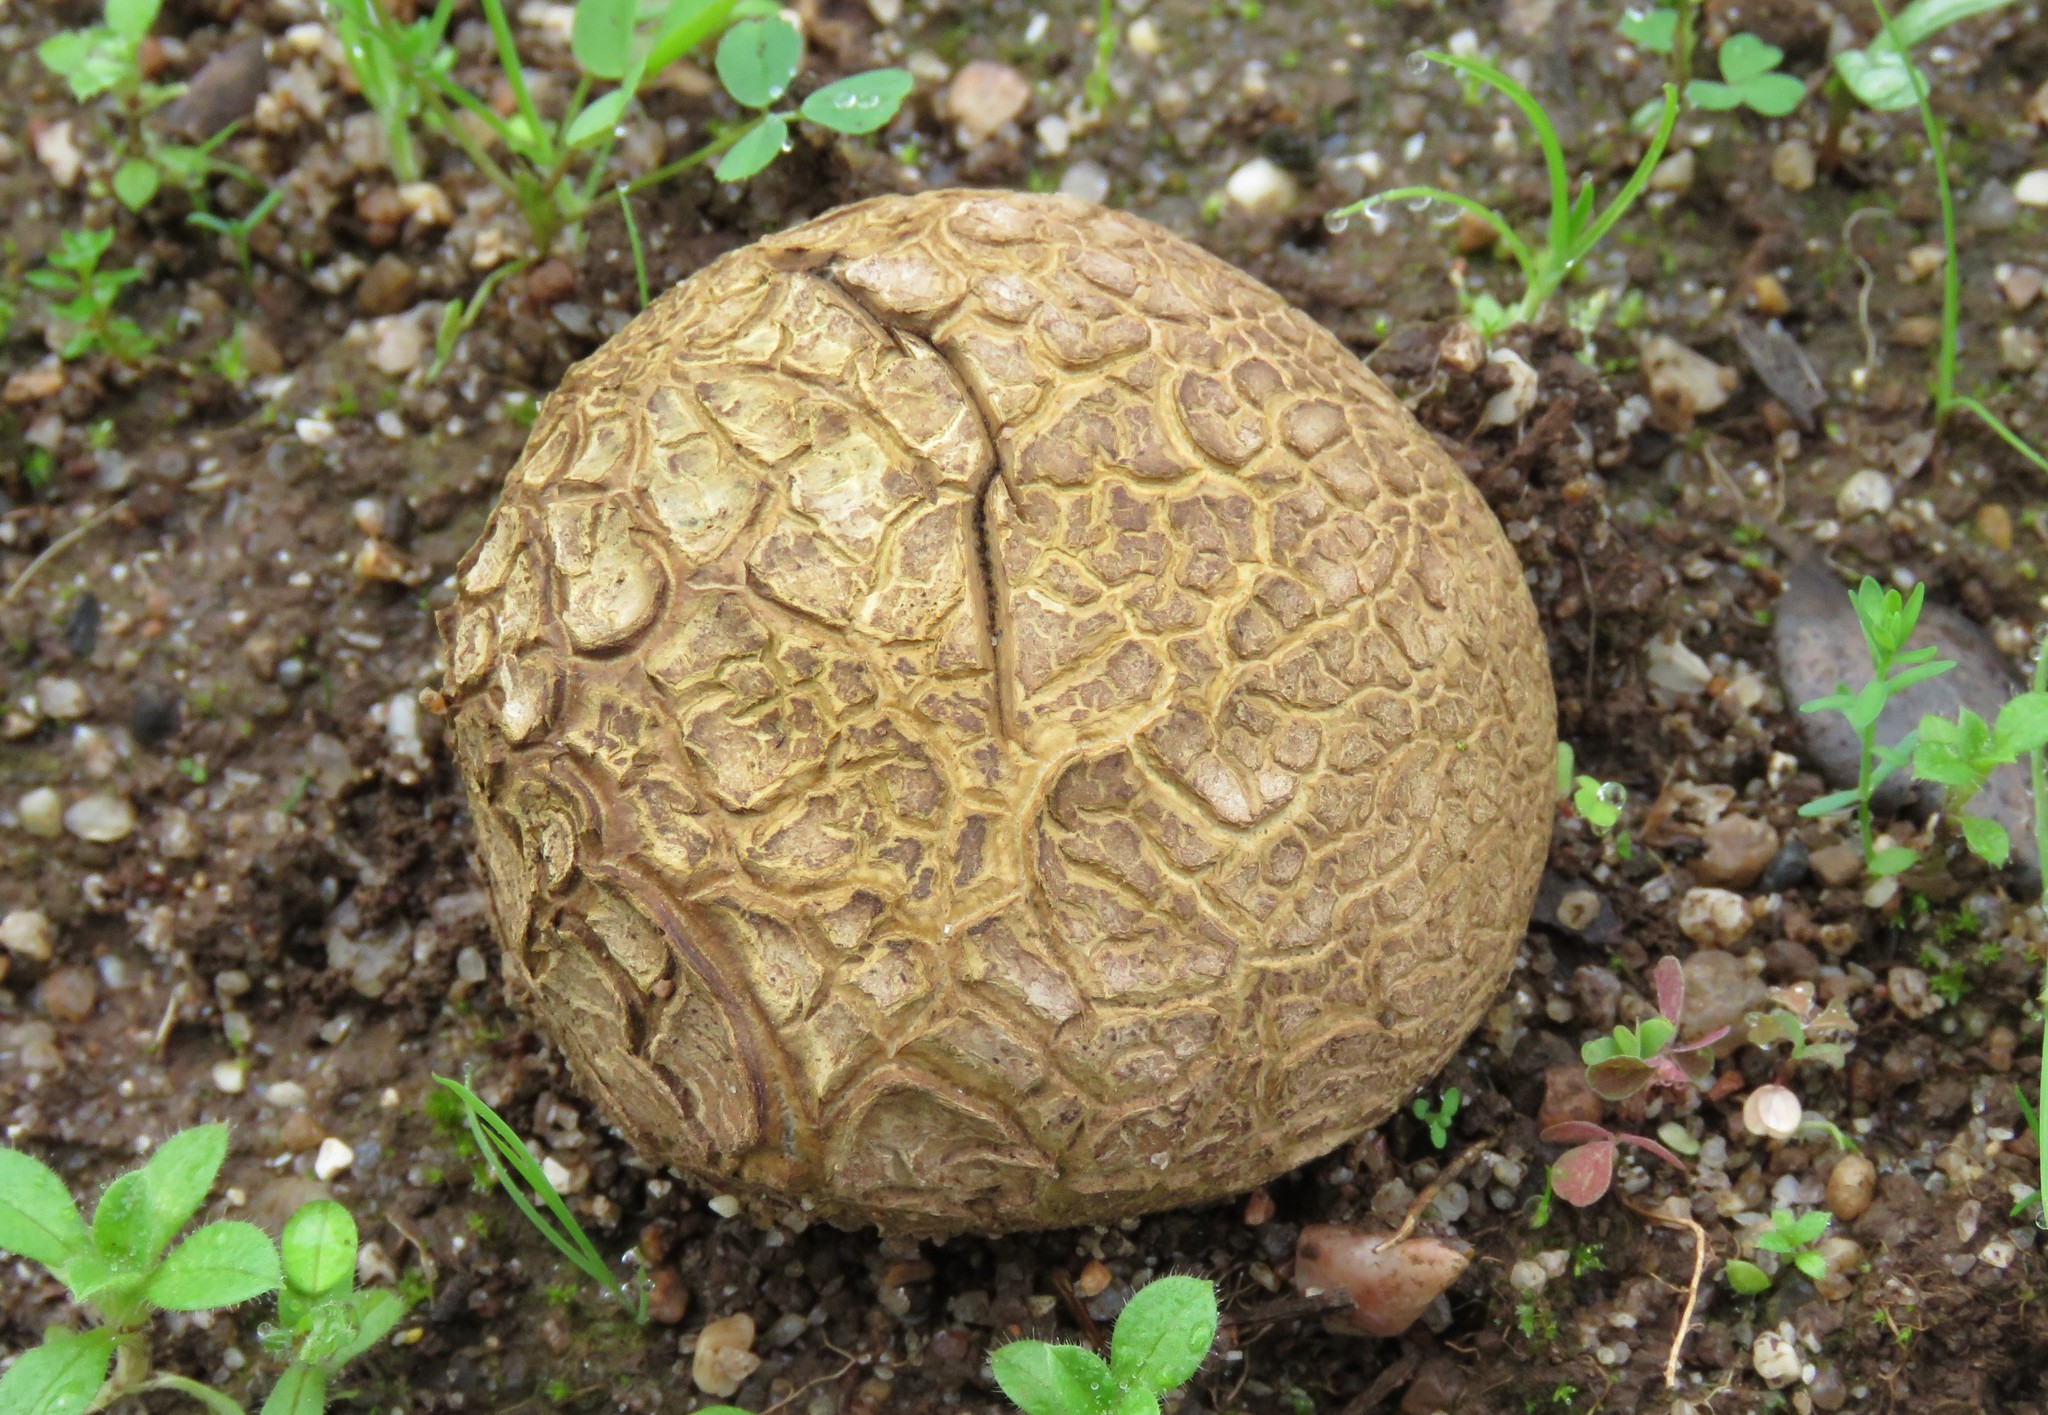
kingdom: Fungi
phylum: Basidiomycota
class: Agaricomycetes
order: Boletales
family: Sclerodermataceae
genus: Scleroderma
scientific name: Scleroderma citrinum
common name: Common earthball
